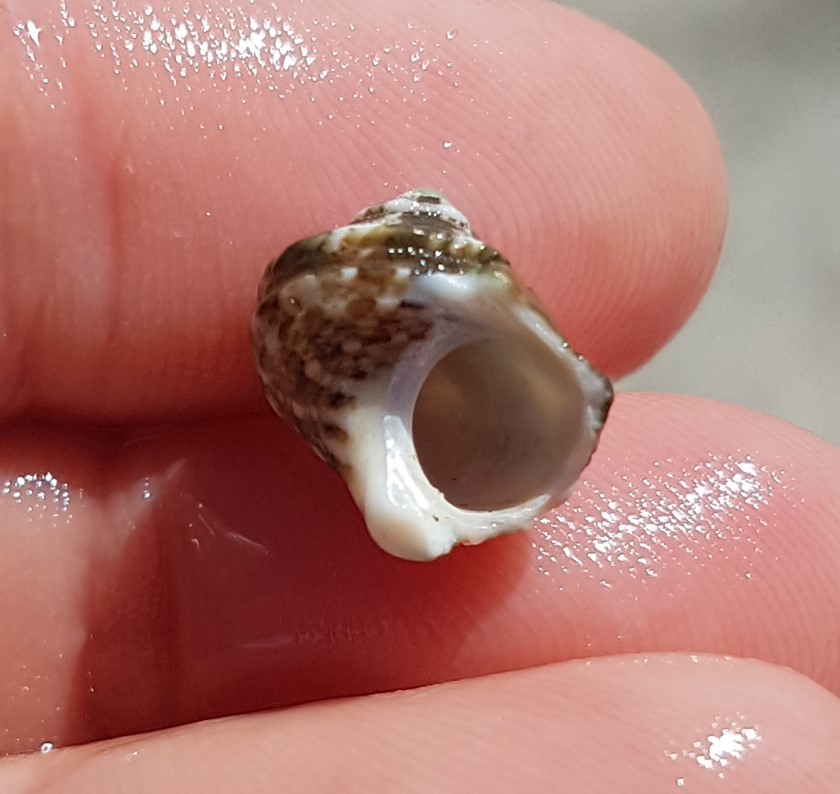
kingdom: Animalia
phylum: Mollusca
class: Gastropoda
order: Trochida
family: Turbinidae
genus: Turbo
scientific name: Turbo saxosus
